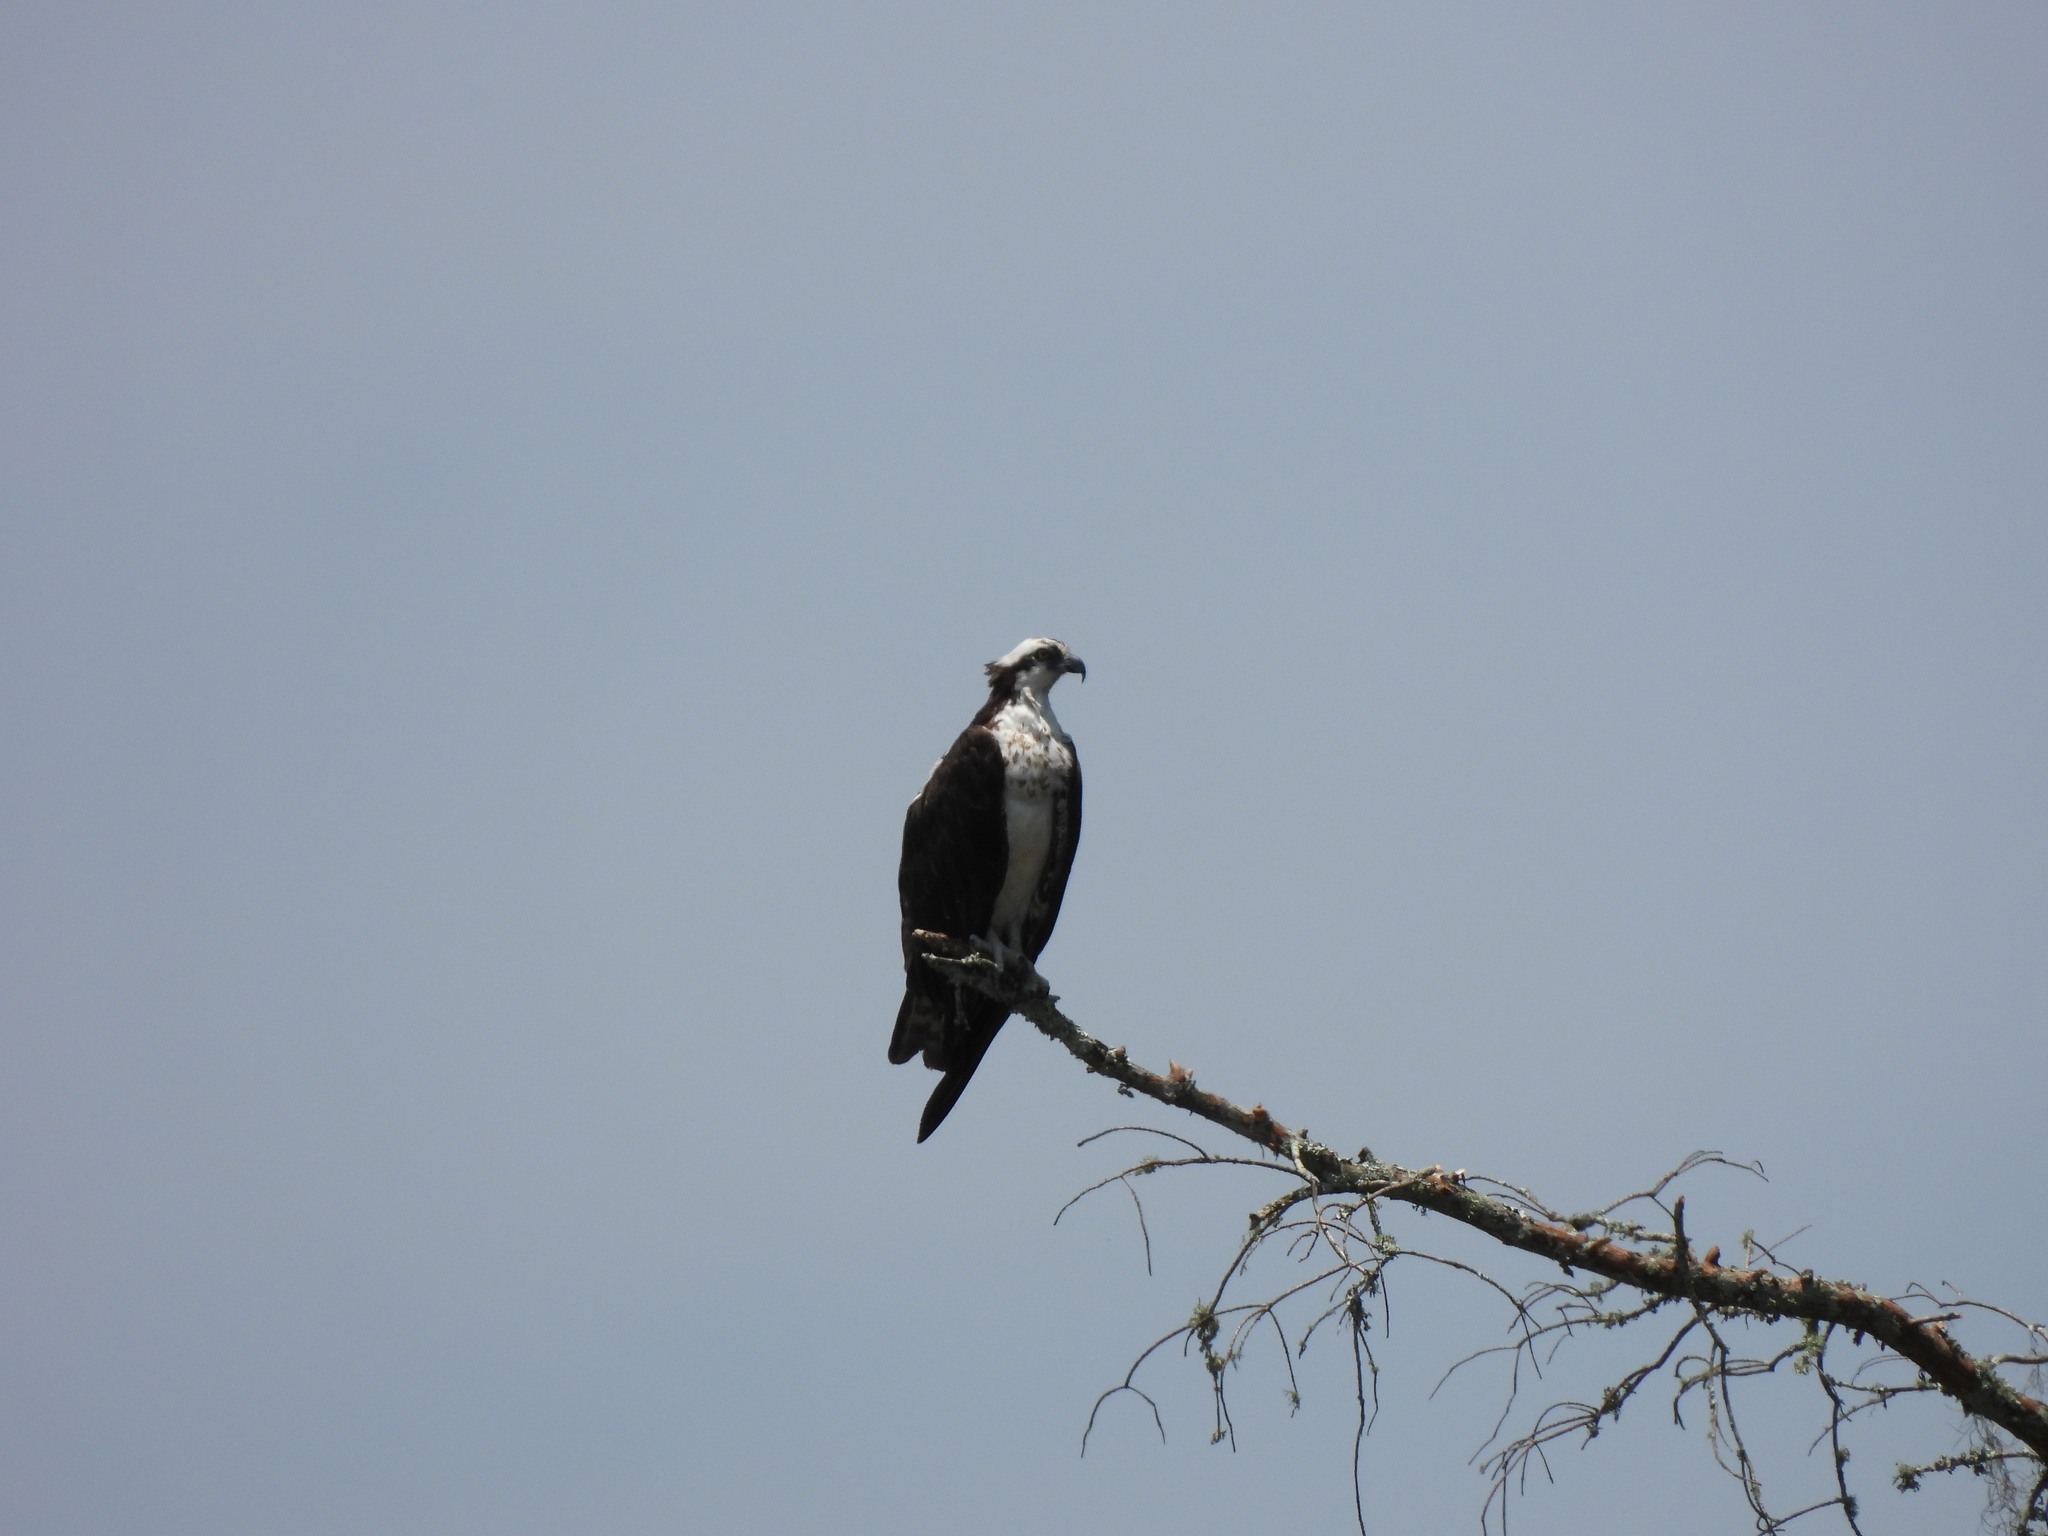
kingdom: Animalia
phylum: Chordata
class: Aves
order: Accipitriformes
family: Pandionidae
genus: Pandion
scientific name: Pandion haliaetus
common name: Osprey
